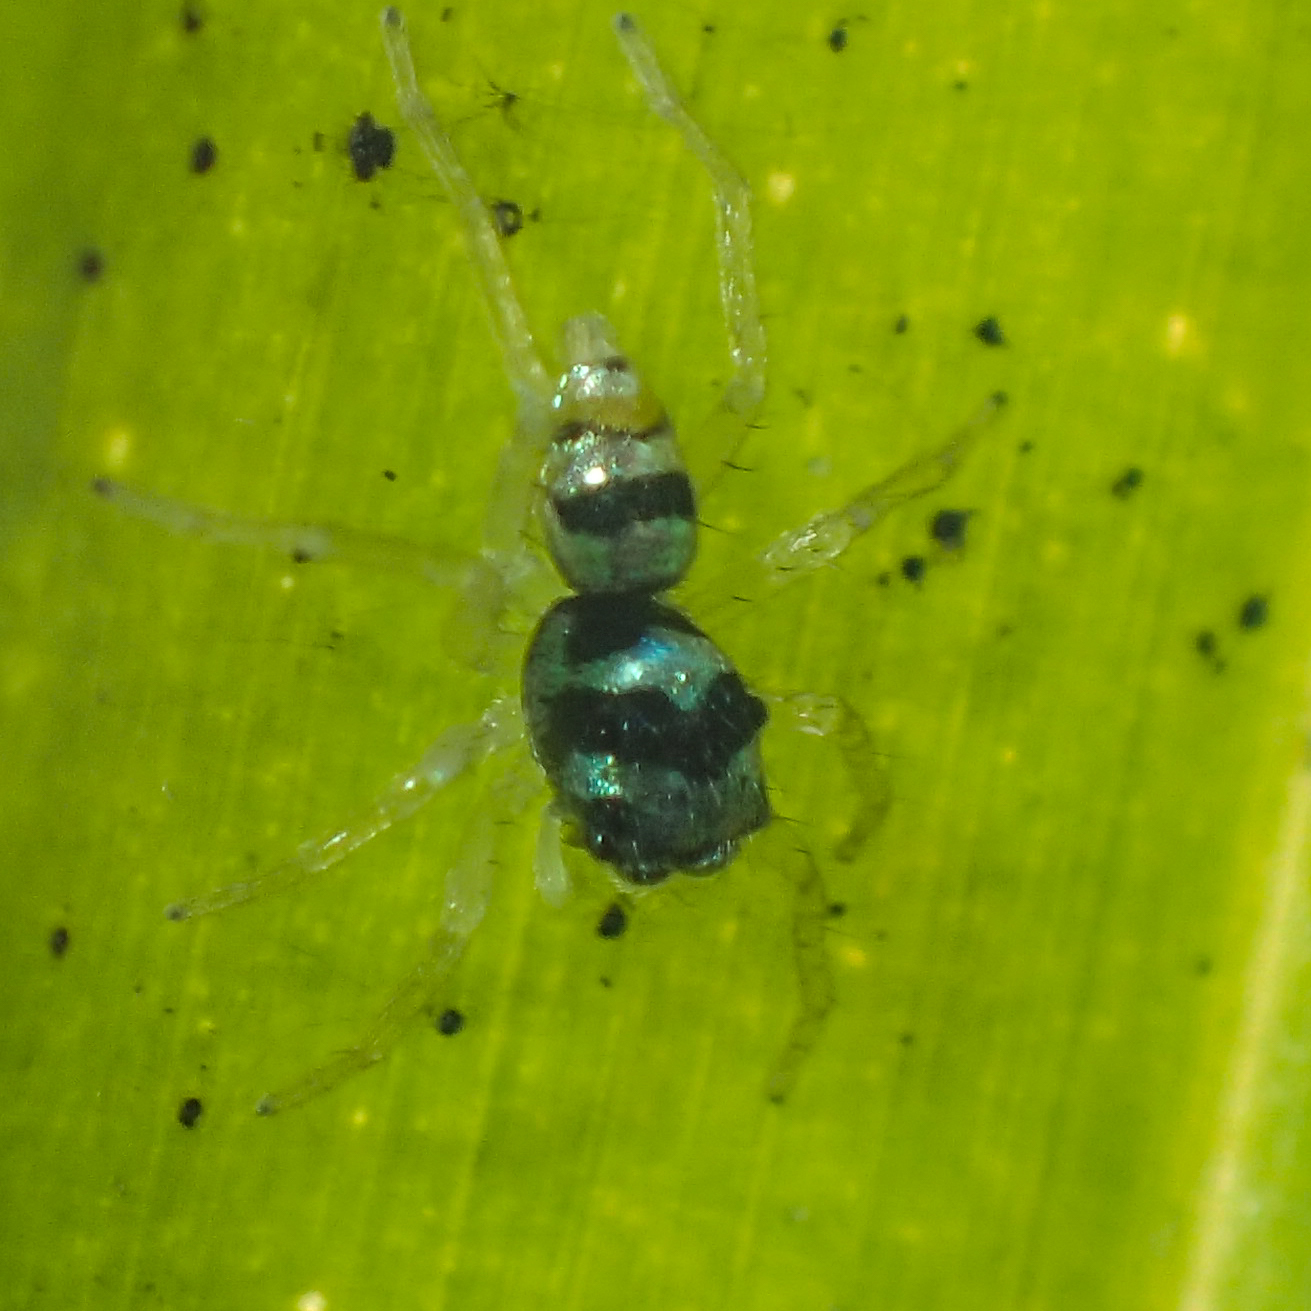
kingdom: Animalia
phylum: Arthropoda
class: Arachnida
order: Araneae
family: Salticidae
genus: Phintella
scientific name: Phintella vittata
